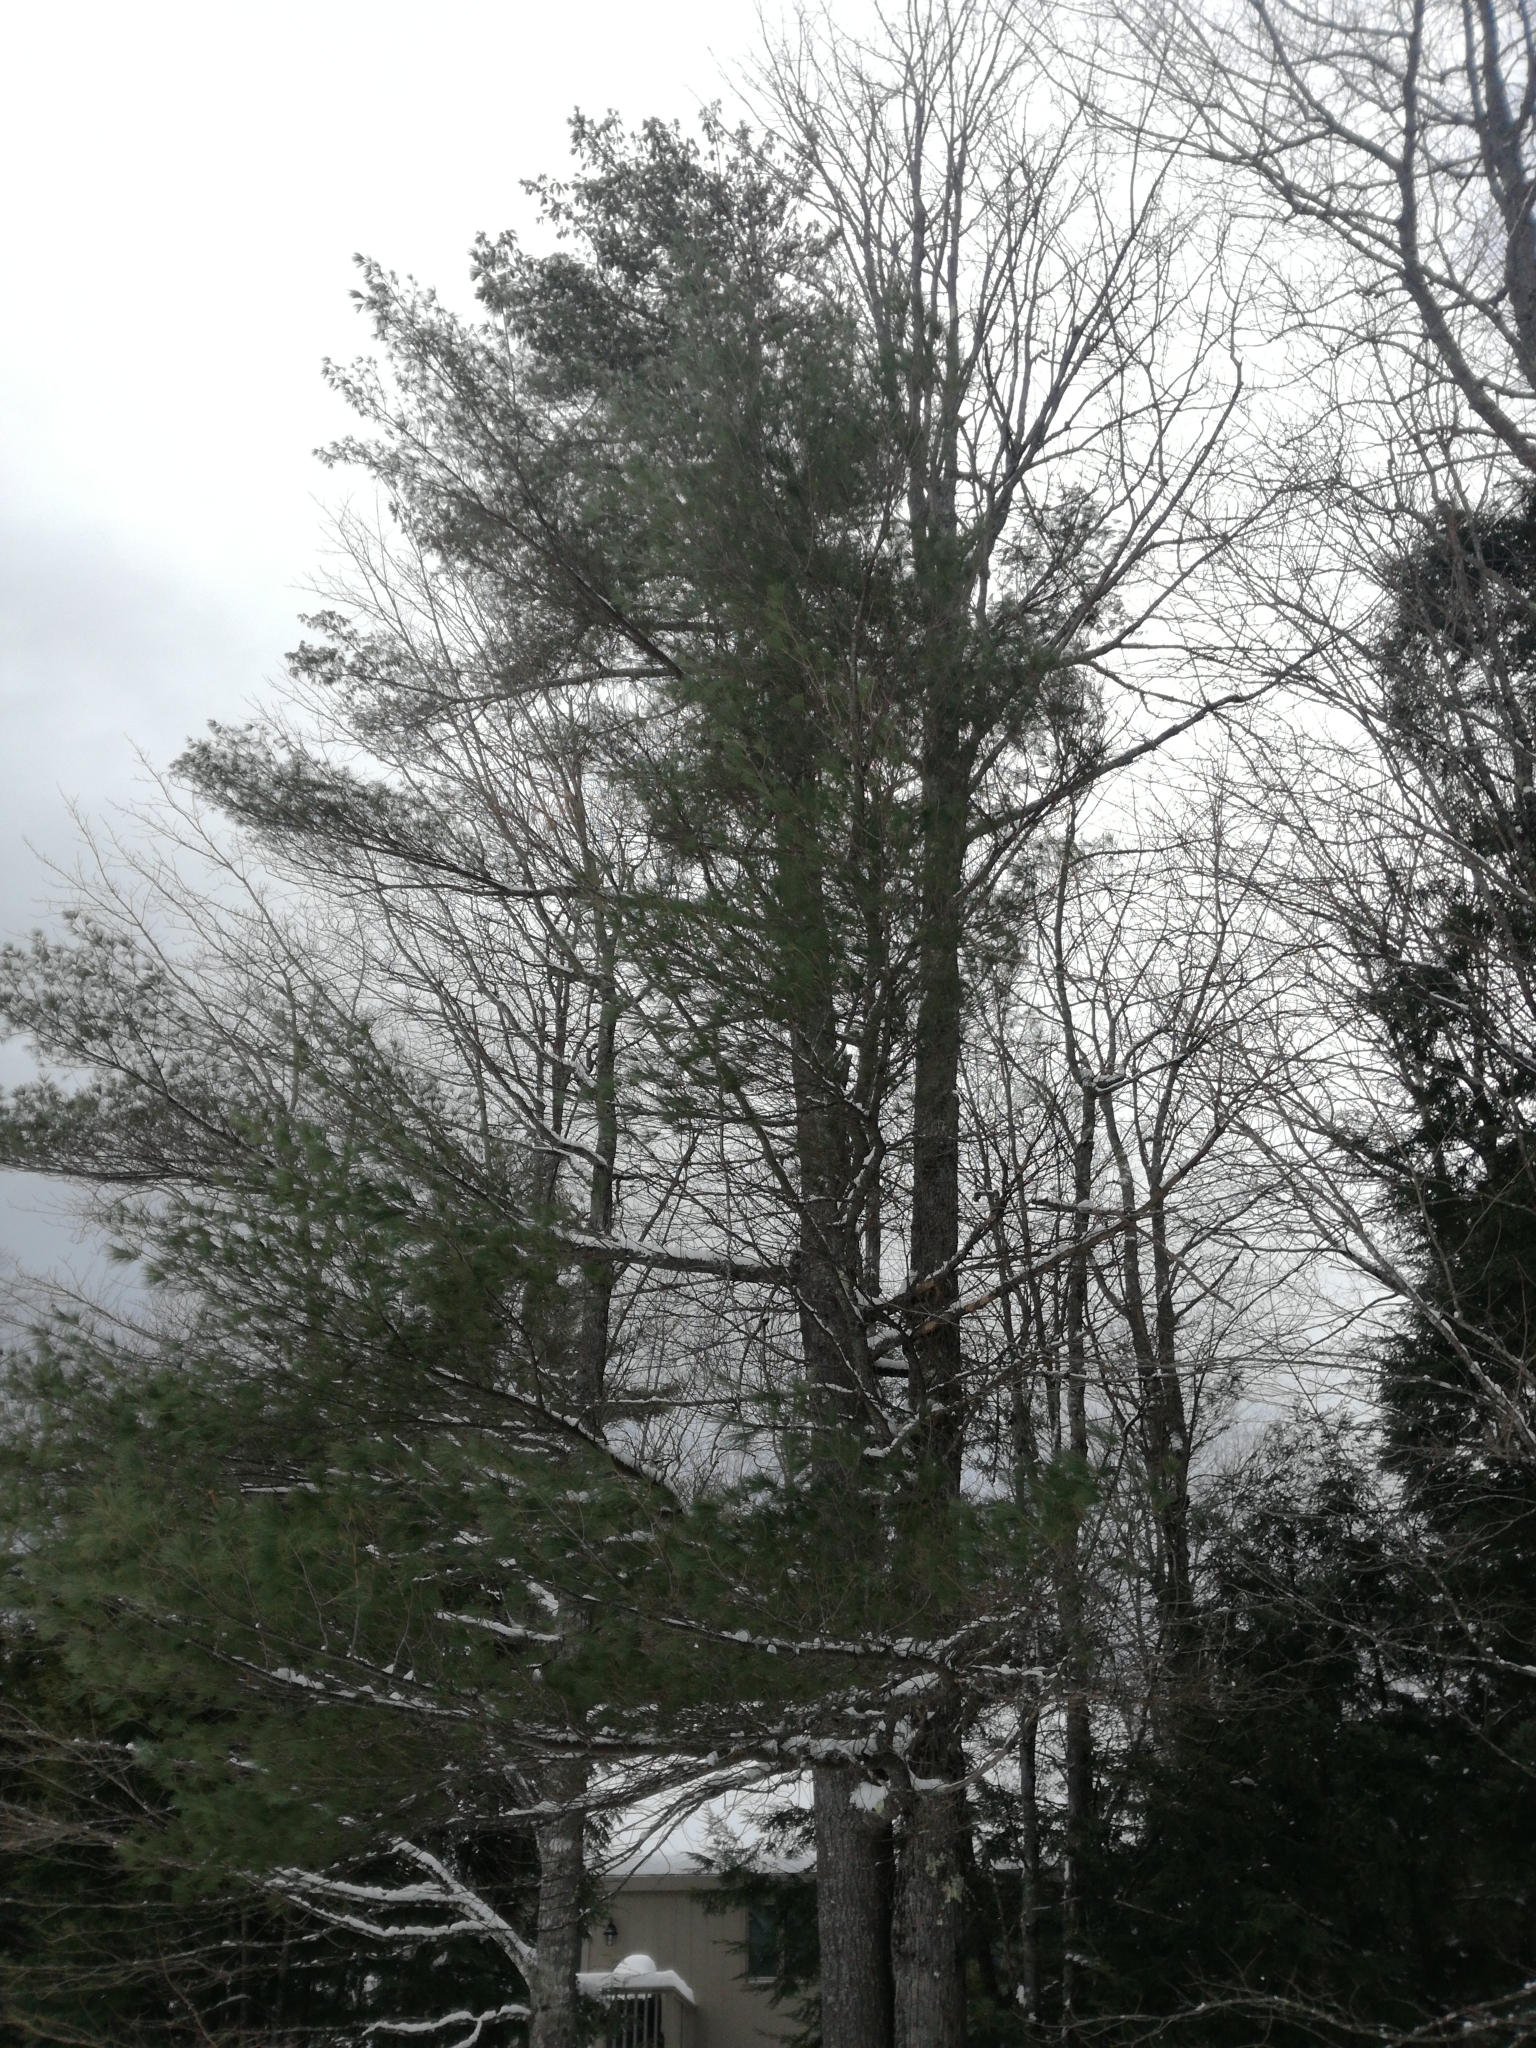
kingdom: Plantae
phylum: Tracheophyta
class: Pinopsida
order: Pinales
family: Pinaceae
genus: Pinus
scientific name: Pinus strobus
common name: Weymouth pine
